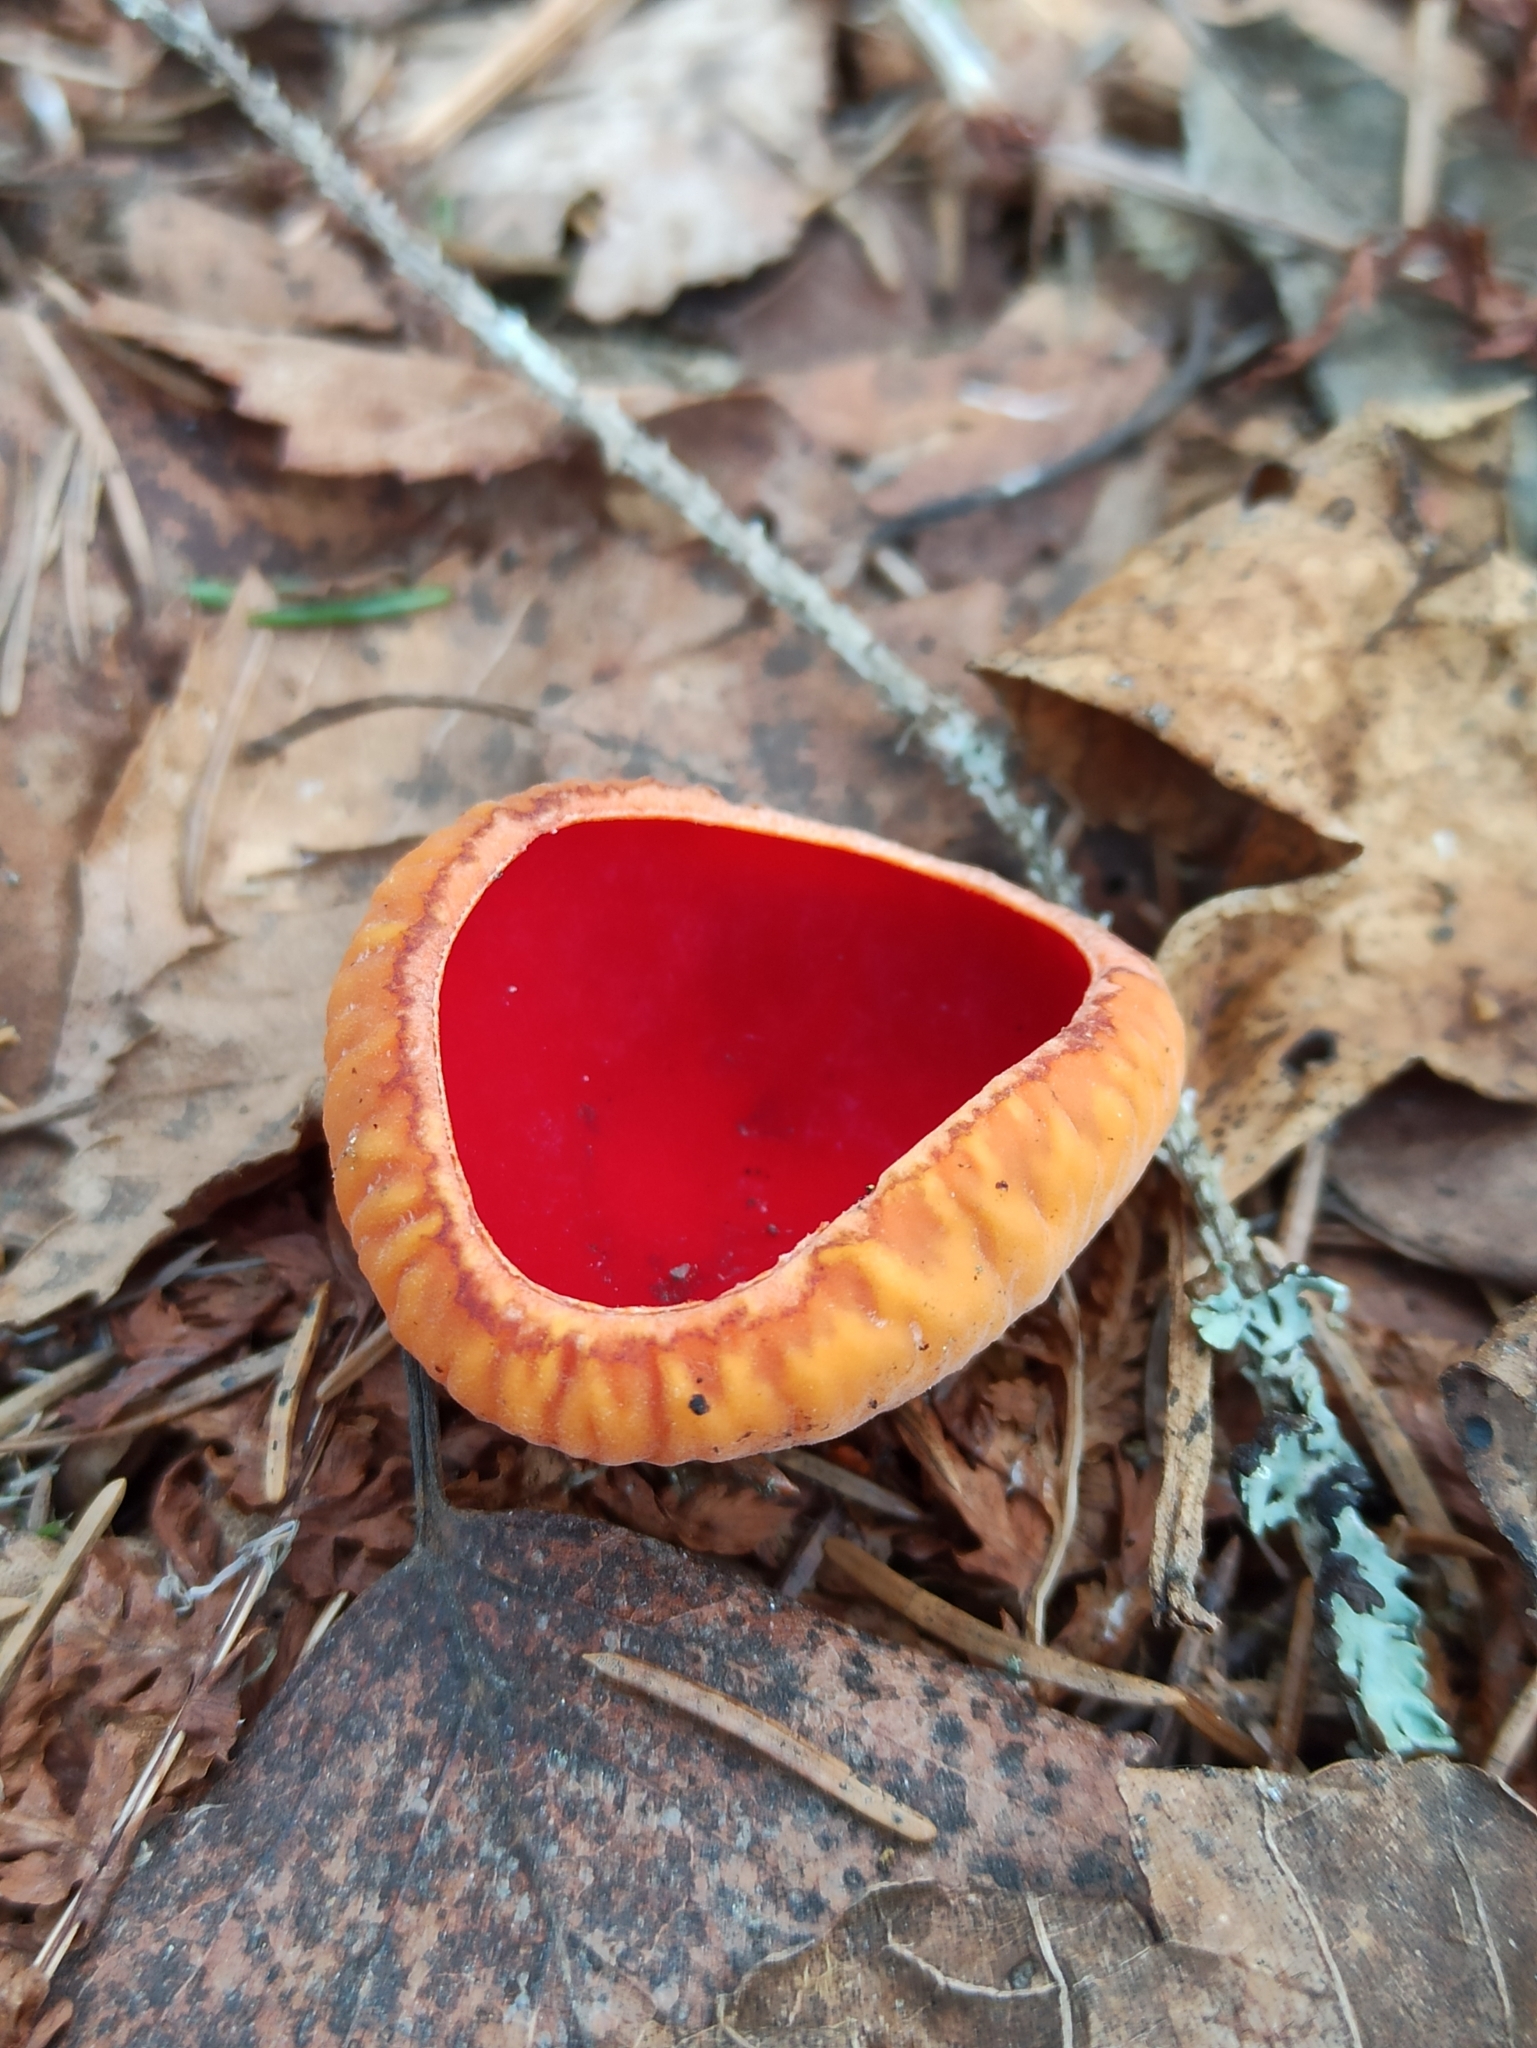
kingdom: Fungi
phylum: Ascomycota
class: Pezizomycetes
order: Pezizales
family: Sarcoscyphaceae
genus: Sarcoscypha
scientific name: Sarcoscypha austriaca
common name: Scarlet elfcup
